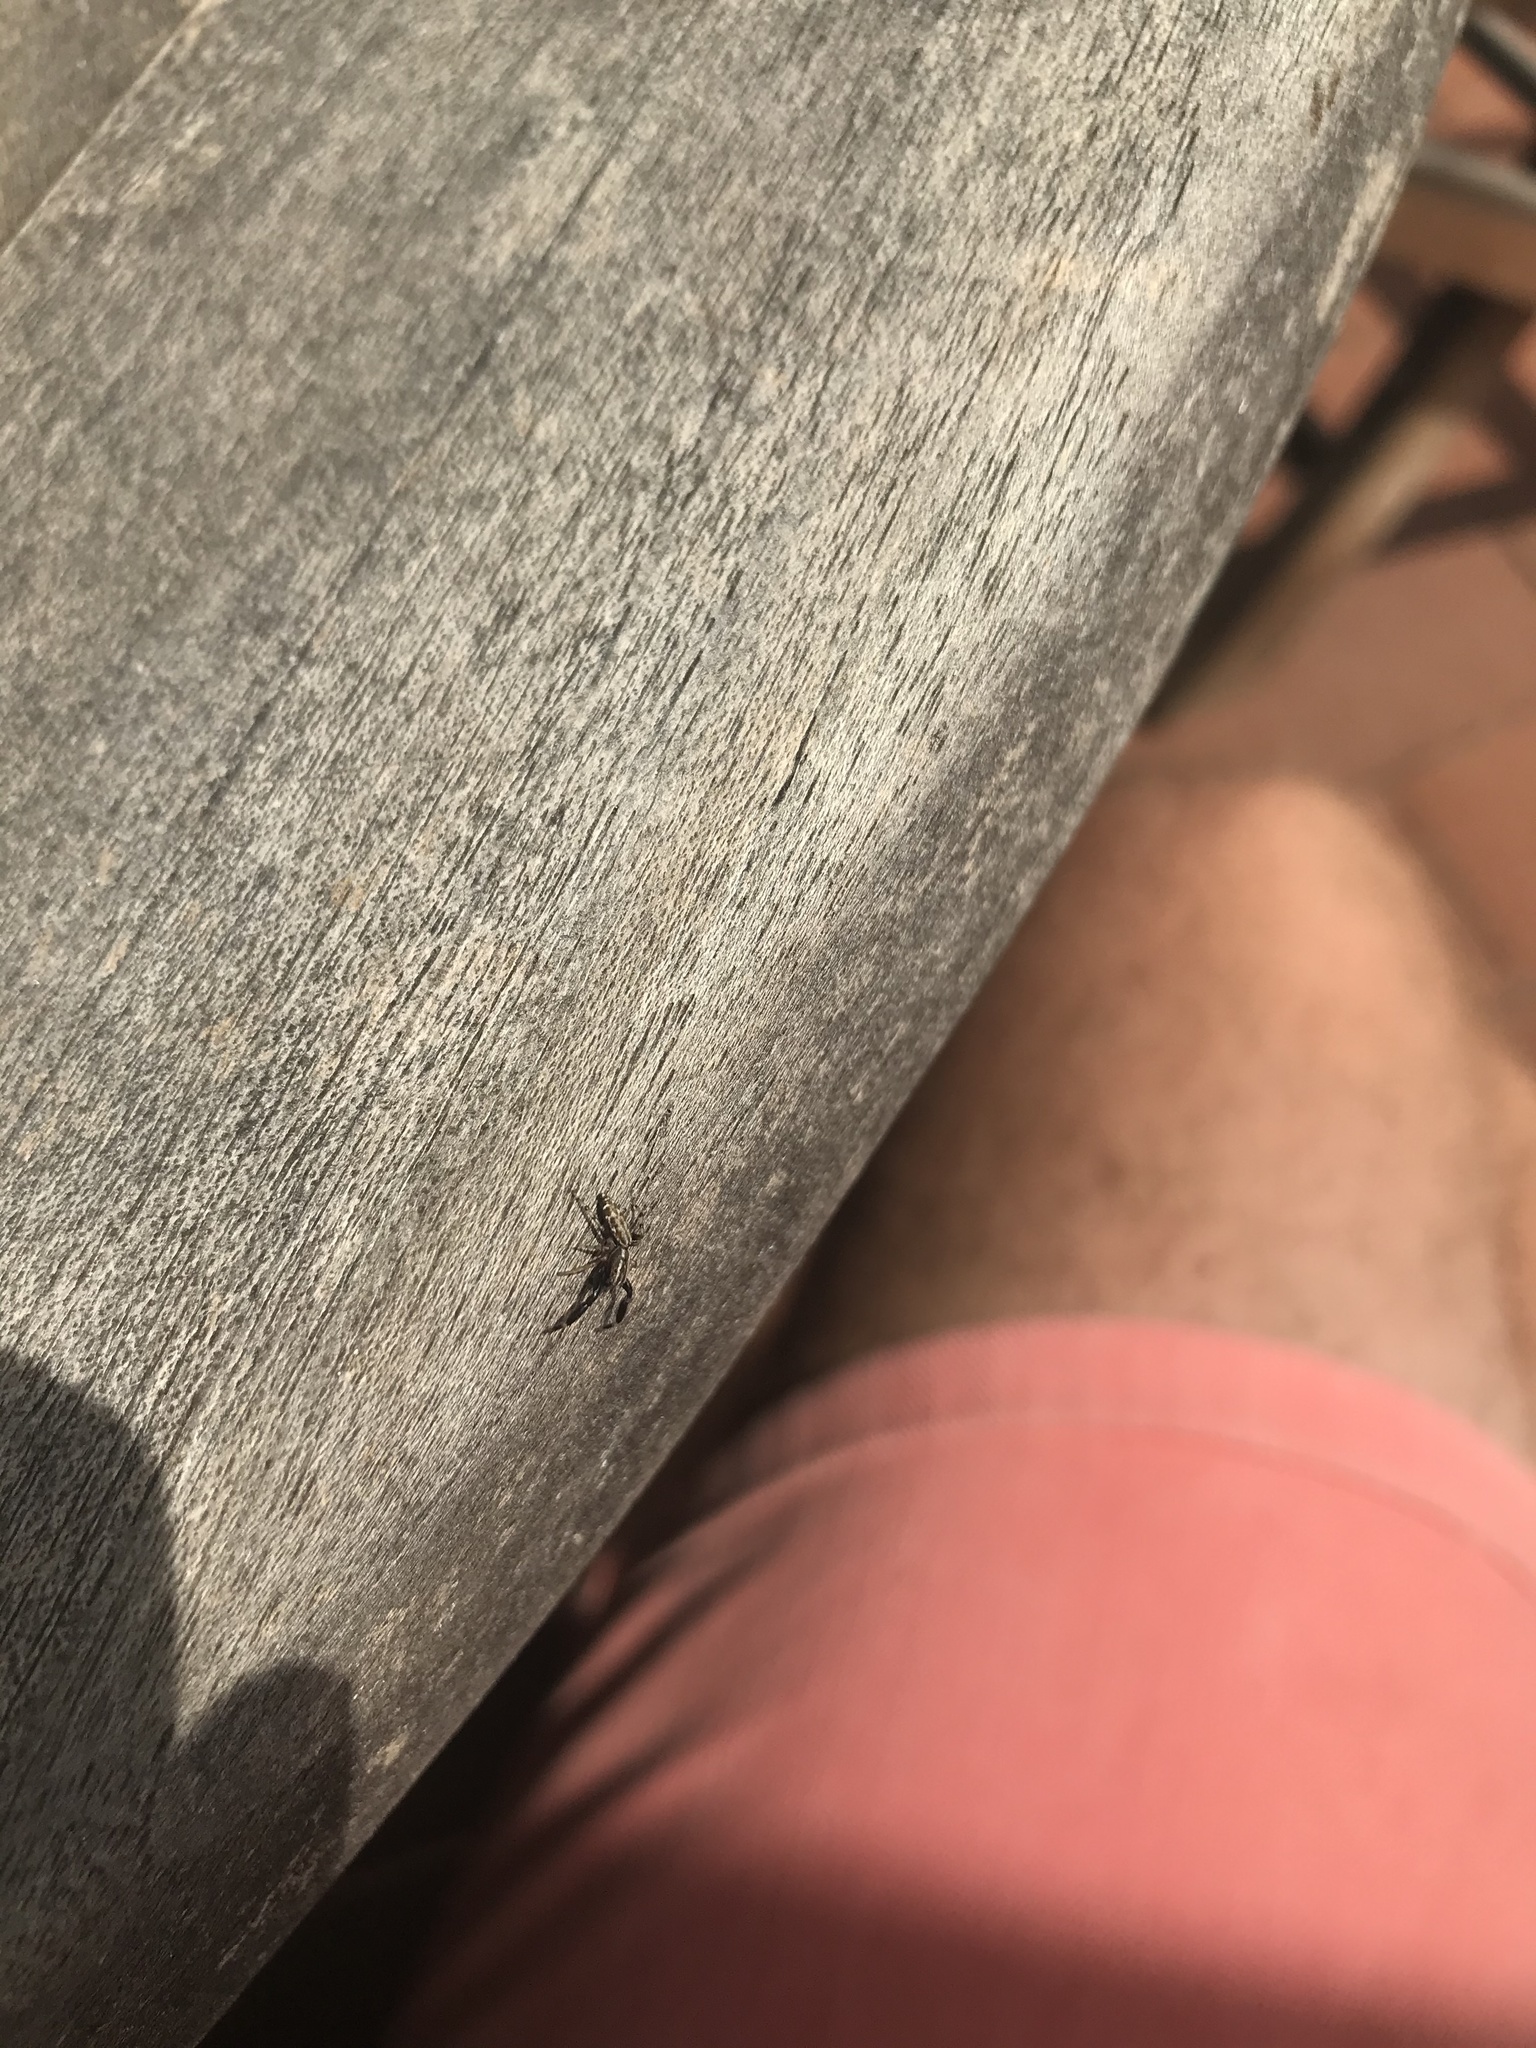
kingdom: Animalia
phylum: Arthropoda
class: Arachnida
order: Araneae
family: Salticidae
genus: Marpissa
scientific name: Marpissa nivoyi
